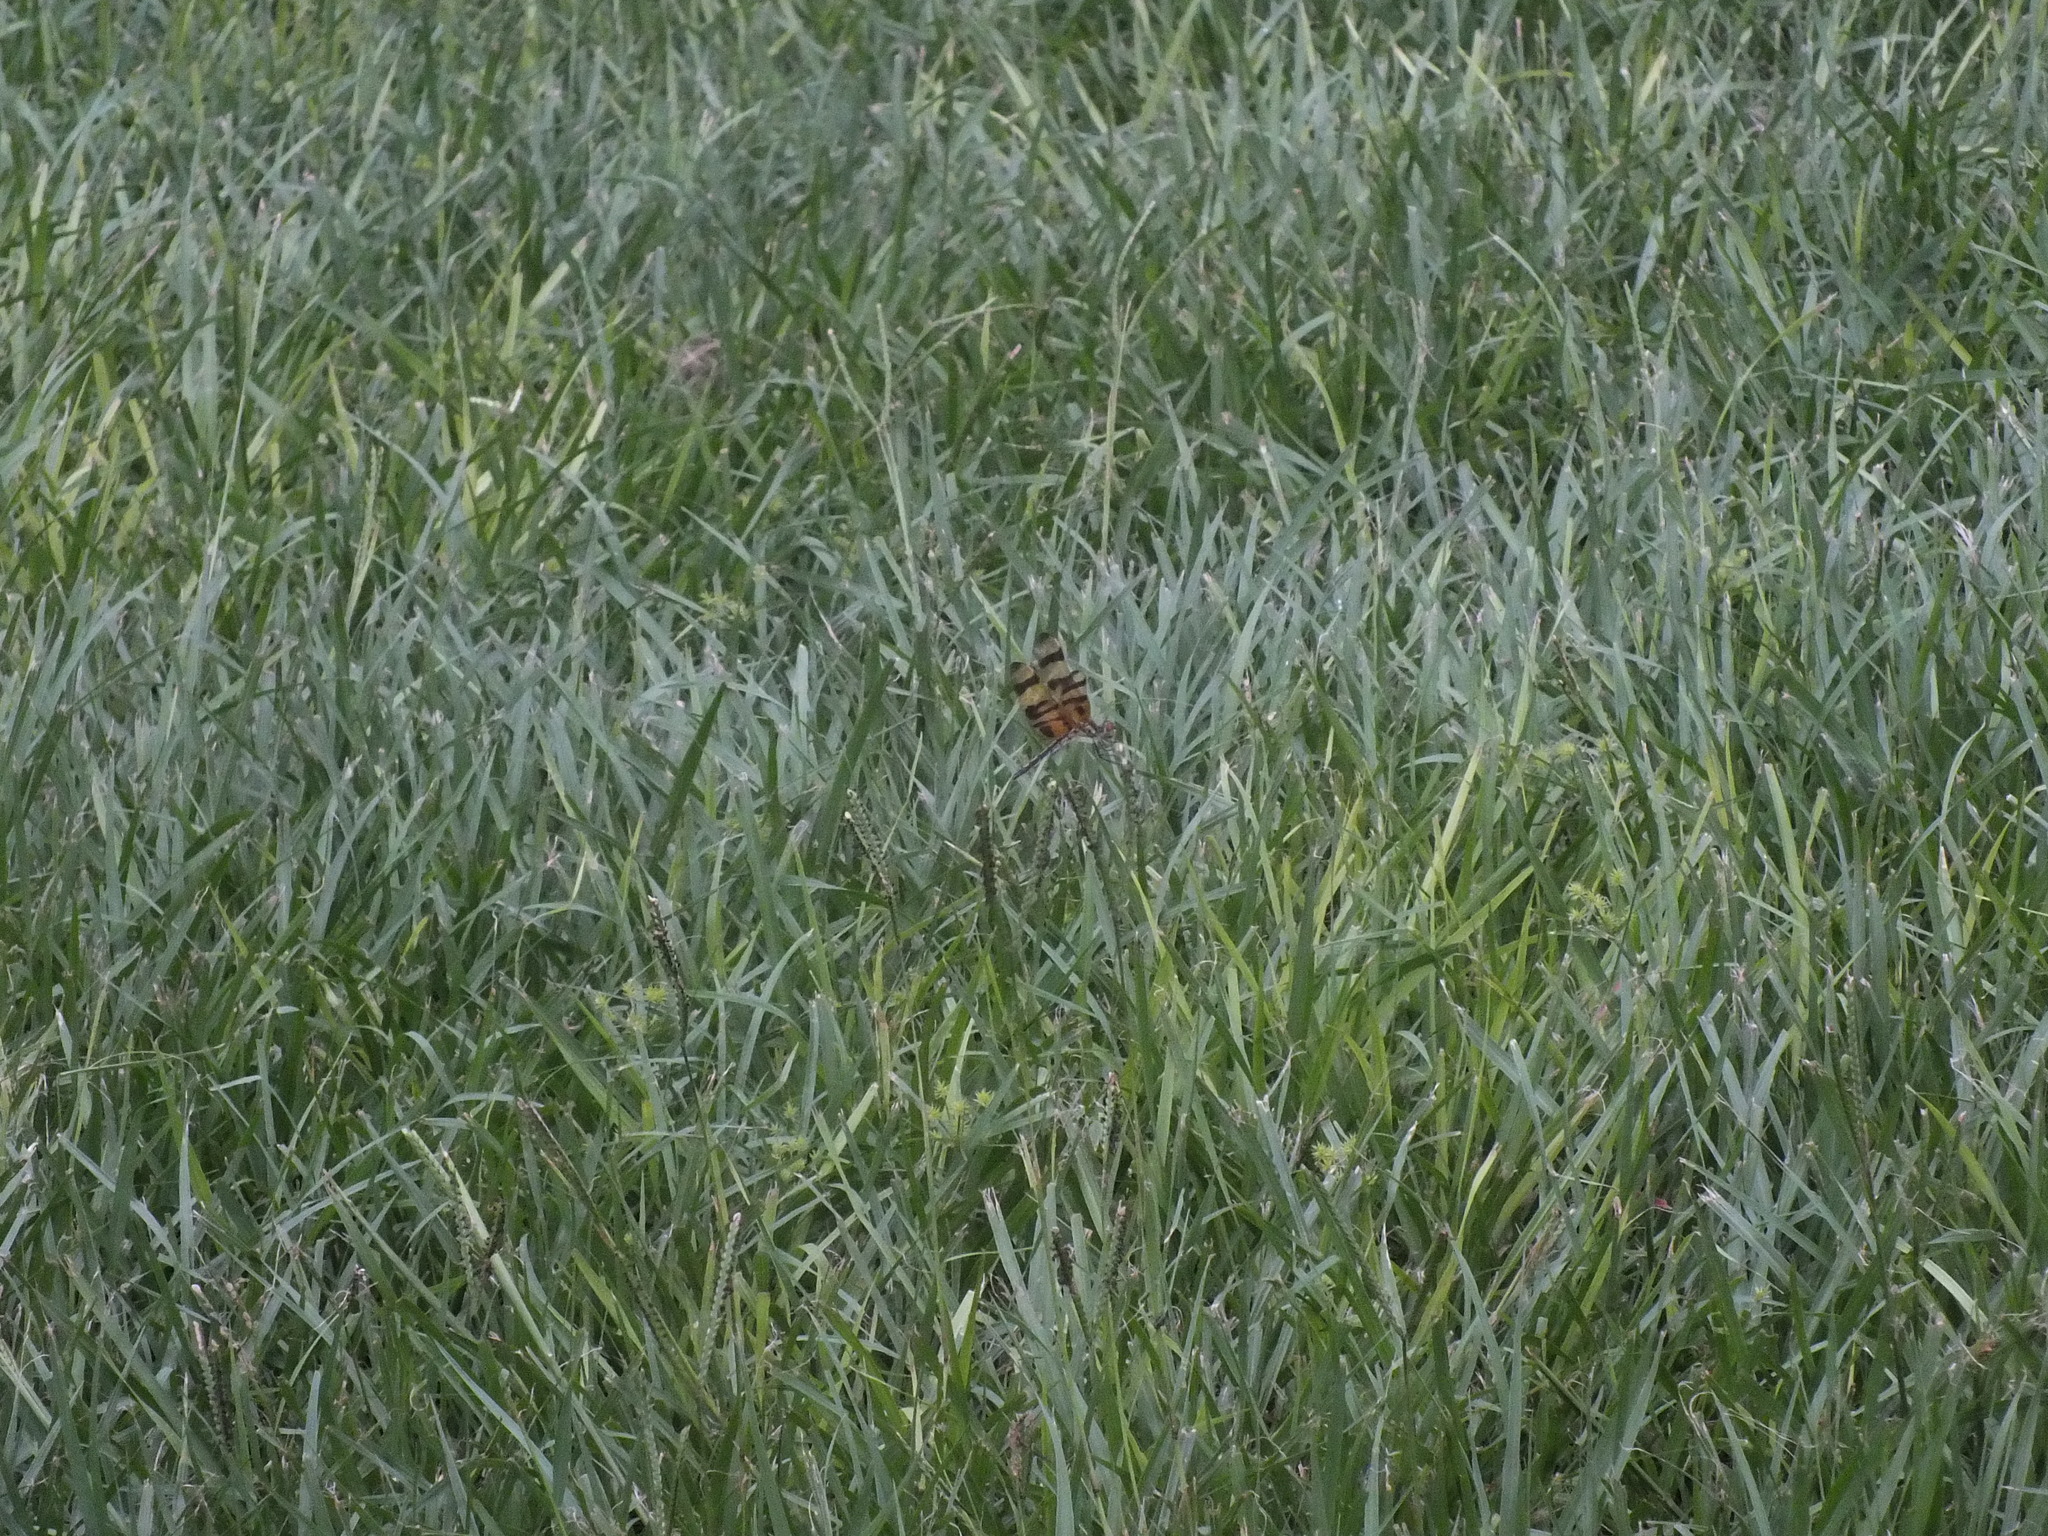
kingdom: Animalia
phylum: Arthropoda
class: Insecta
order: Odonata
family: Libellulidae
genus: Celithemis
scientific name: Celithemis eponina
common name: Halloween pennant
